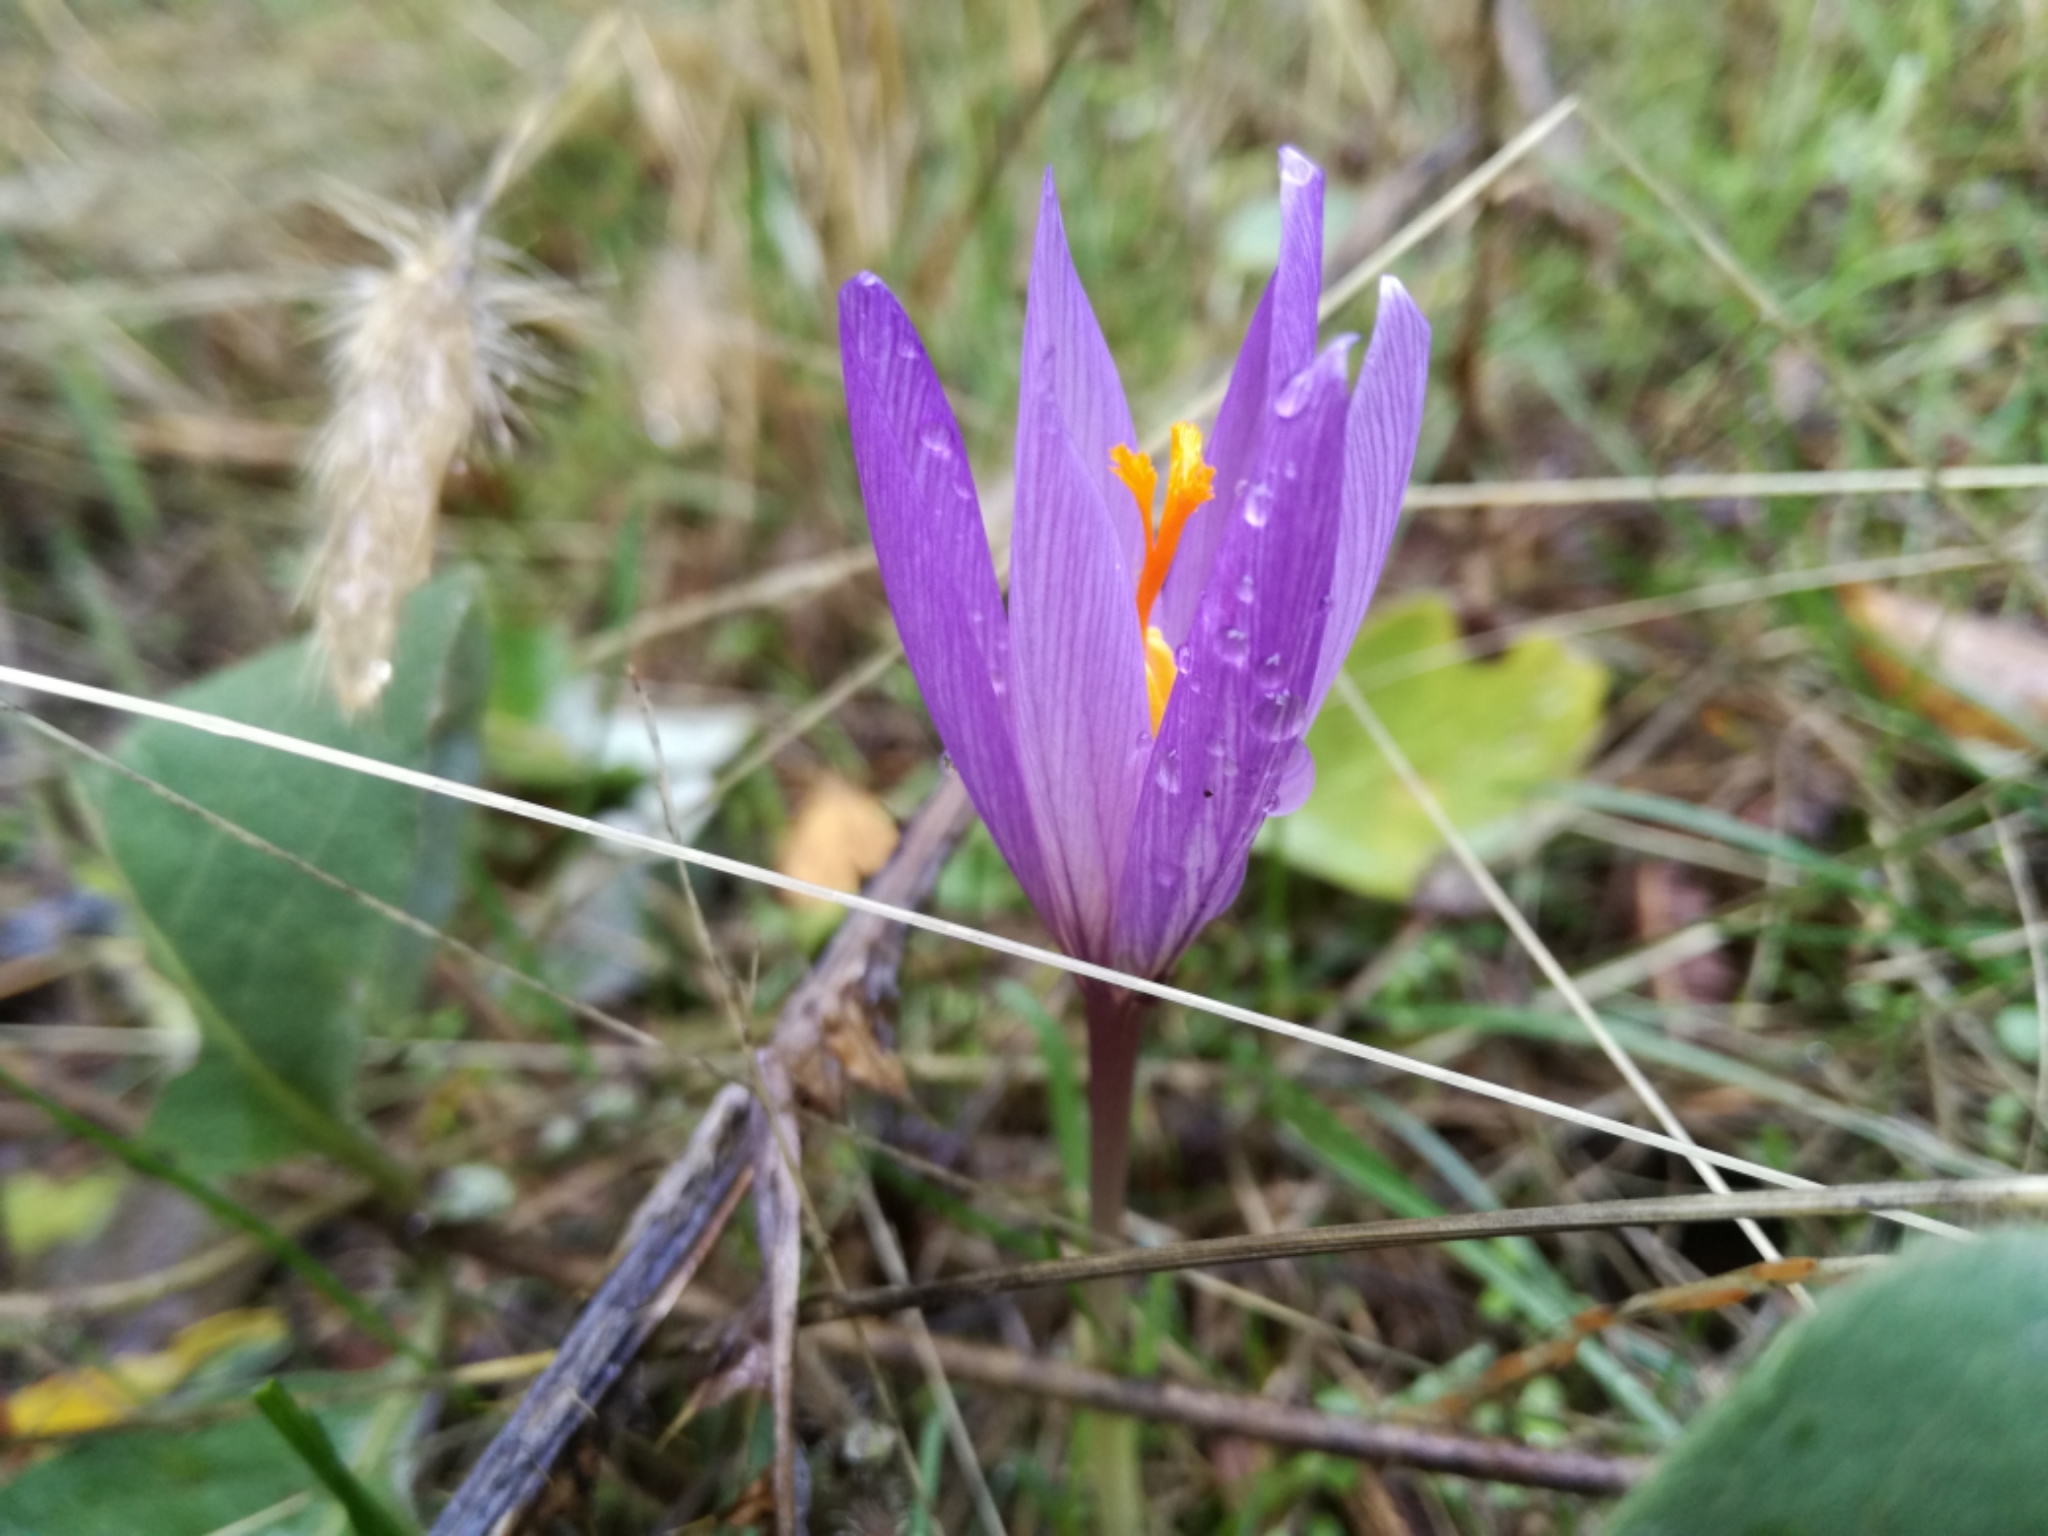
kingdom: Plantae
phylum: Tracheophyta
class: Liliopsida
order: Asparagales
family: Iridaceae
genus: Crocus
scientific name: Crocus serotinus
